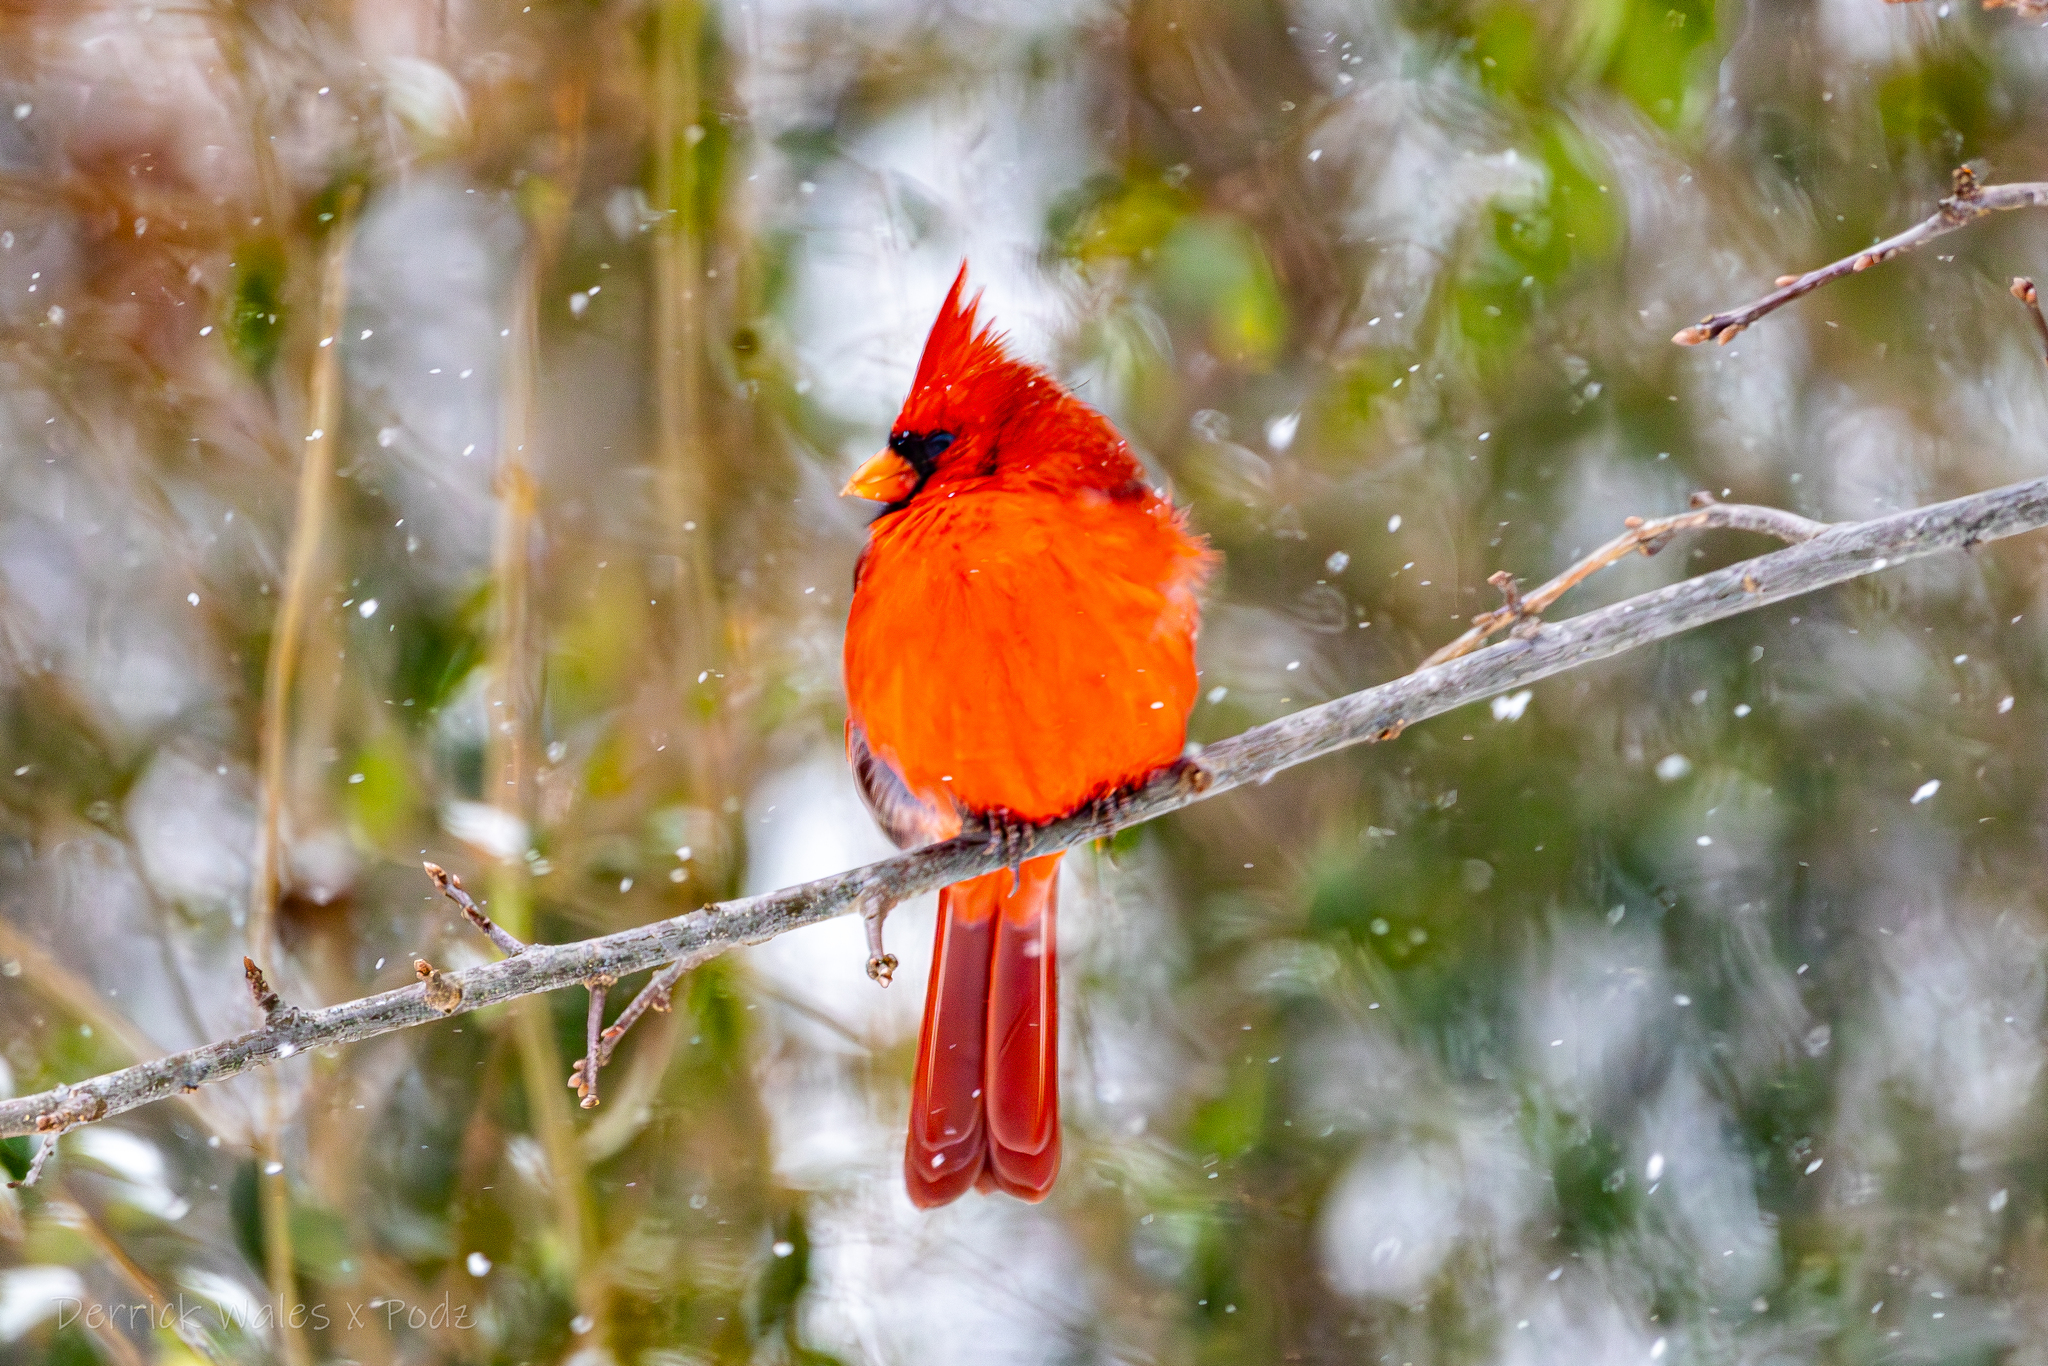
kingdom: Animalia
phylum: Chordata
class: Aves
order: Passeriformes
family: Cardinalidae
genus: Cardinalis
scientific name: Cardinalis cardinalis
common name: Northern cardinal
